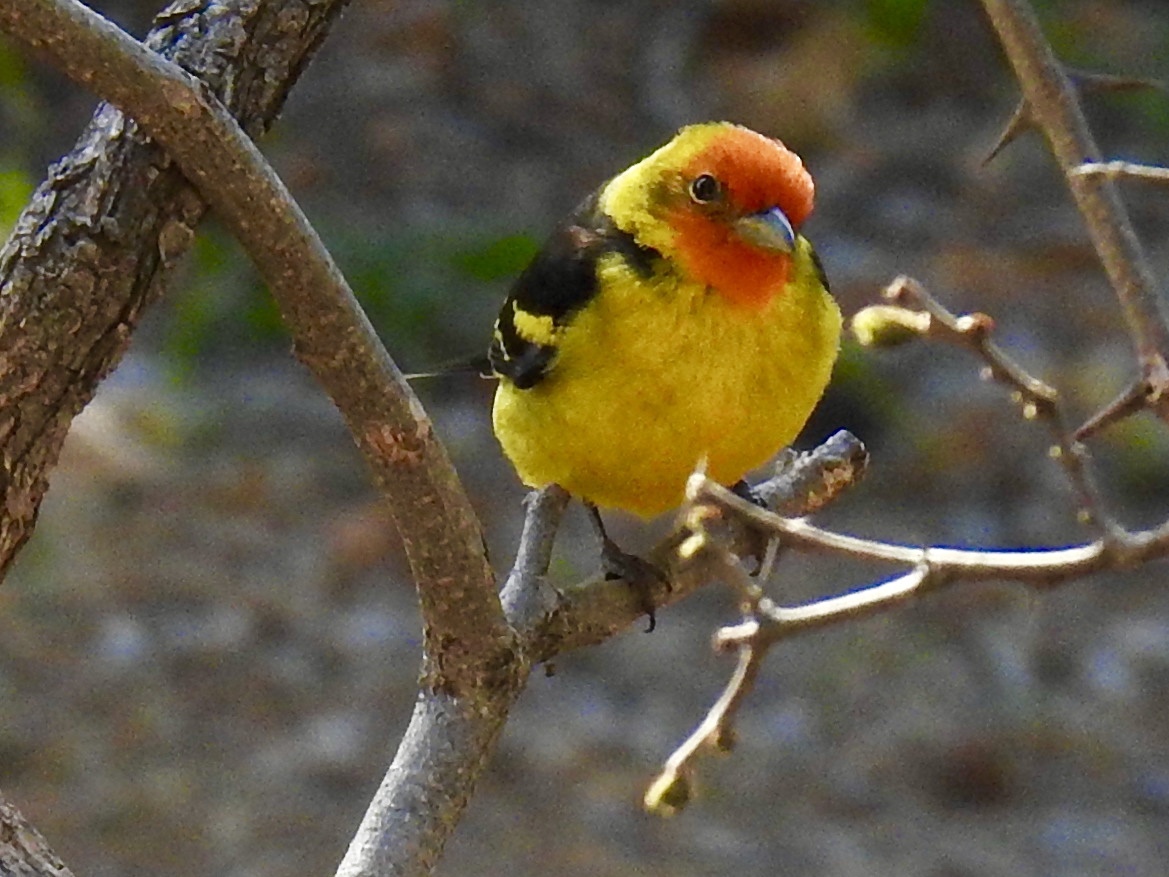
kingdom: Animalia
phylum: Chordata
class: Aves
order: Passeriformes
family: Cardinalidae
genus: Piranga
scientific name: Piranga ludoviciana
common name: Western tanager
